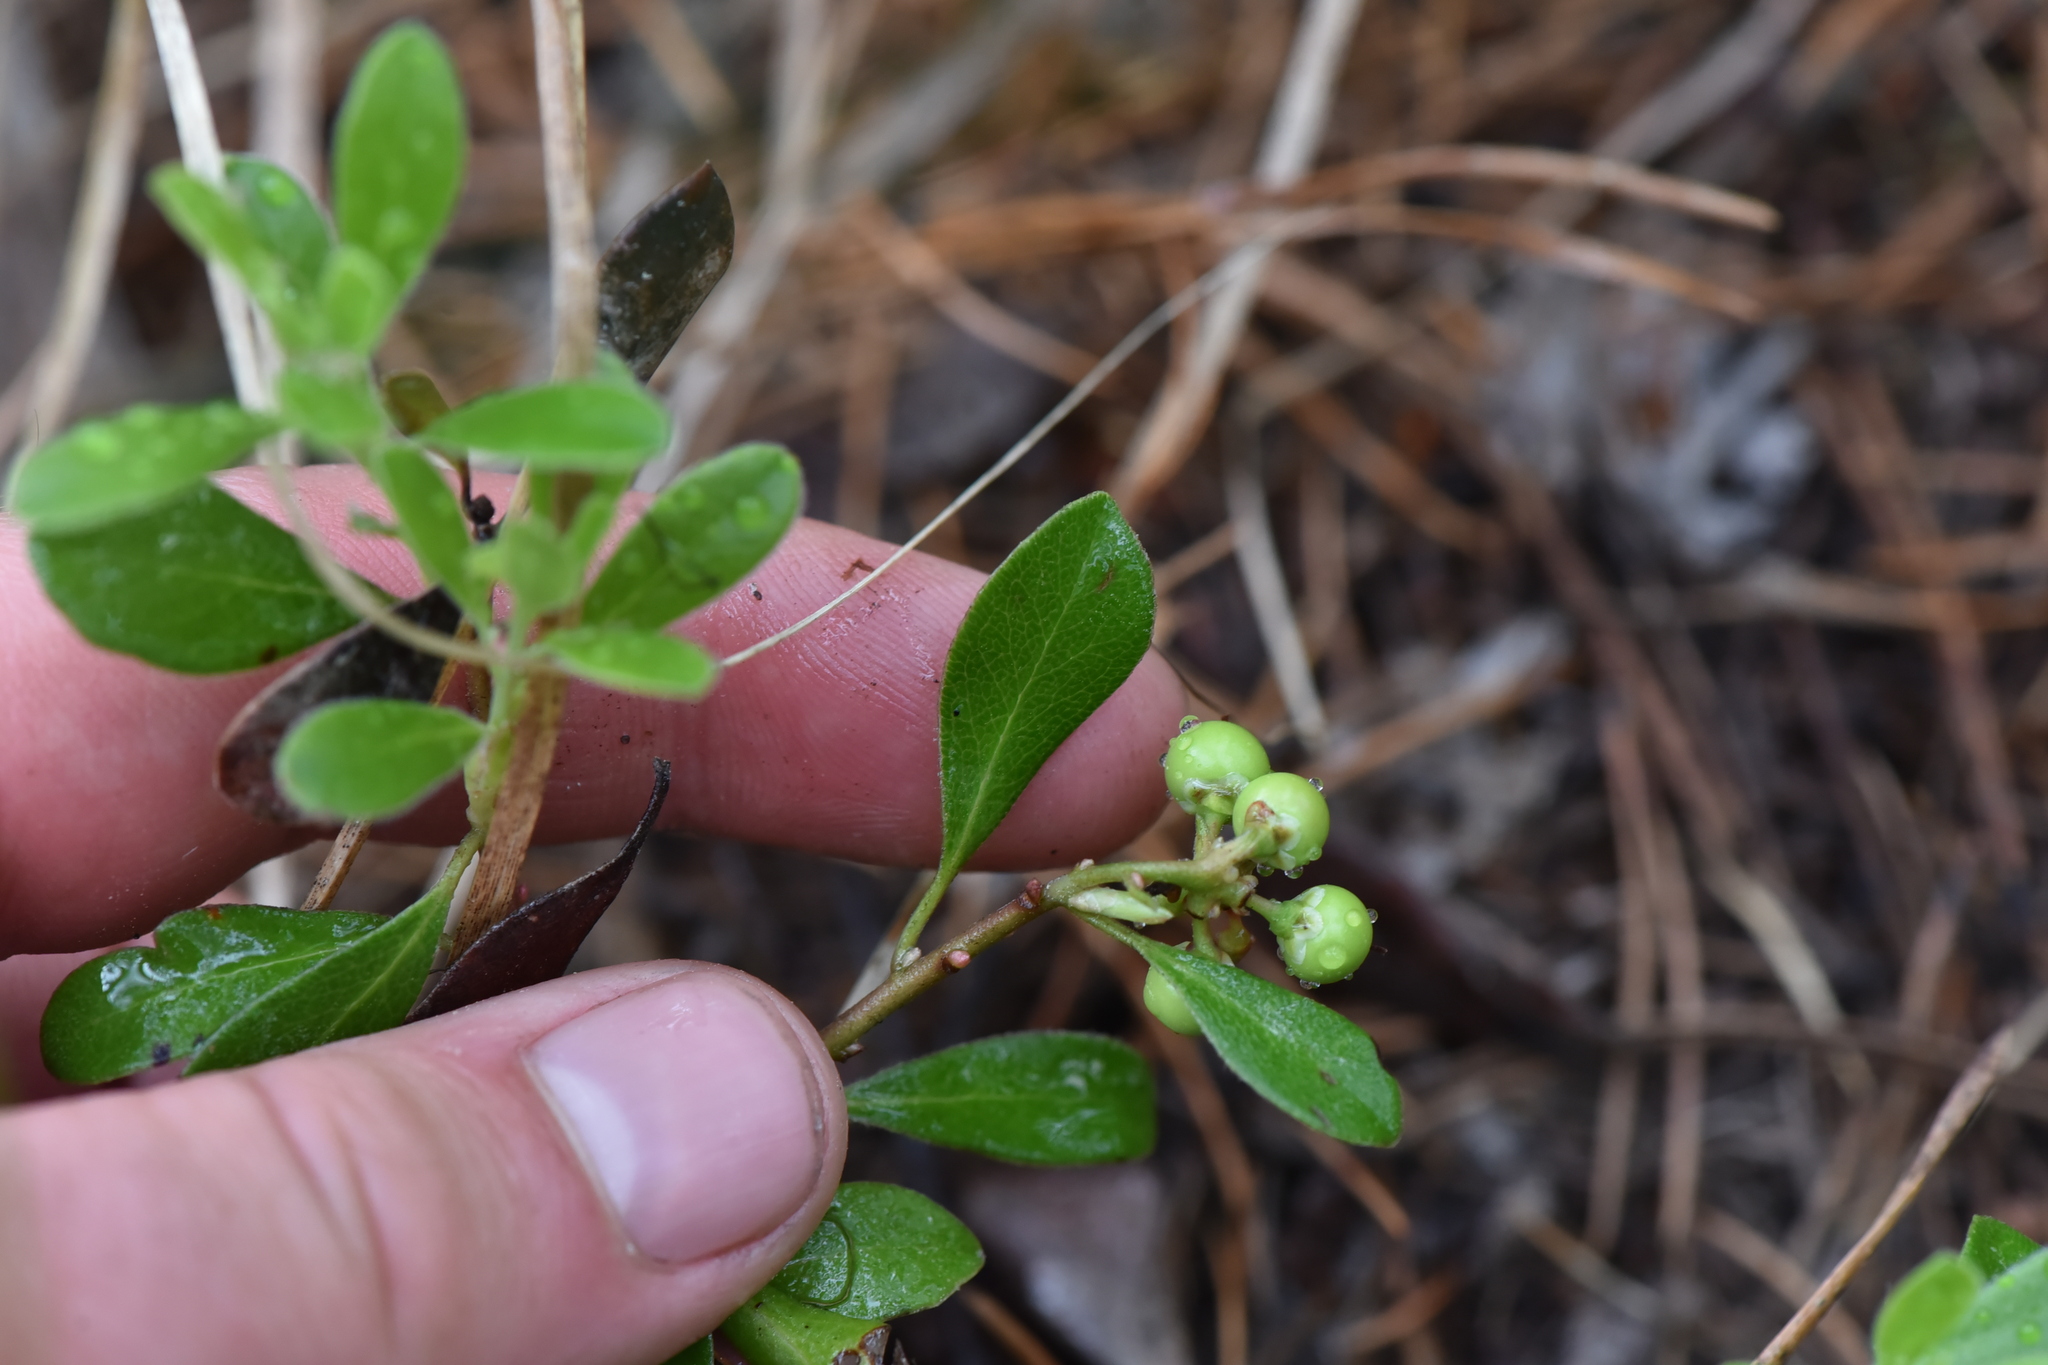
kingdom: Plantae
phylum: Tracheophyta
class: Magnoliopsida
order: Ericales
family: Ericaceae
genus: Arctostaphylos
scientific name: Arctostaphylos uva-ursi
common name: Bearberry
